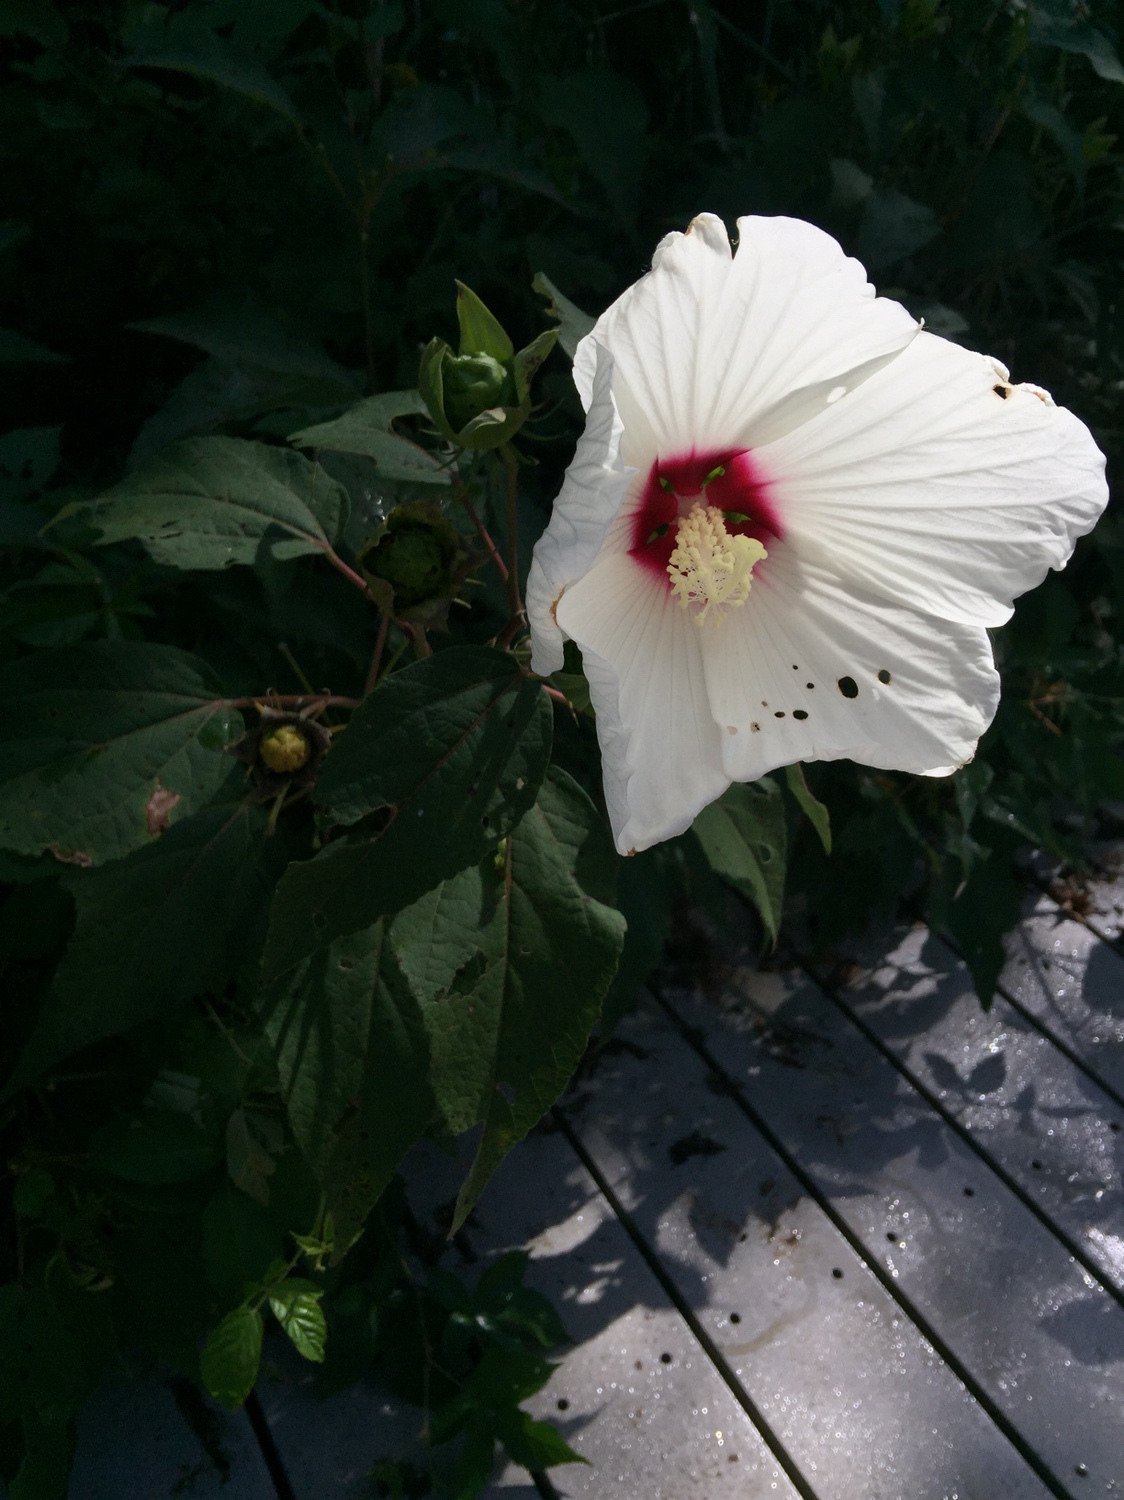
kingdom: Plantae
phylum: Tracheophyta
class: Magnoliopsida
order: Malvales
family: Malvaceae
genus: Hibiscus
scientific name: Hibiscus moscheutos
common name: Common rose-mallow
